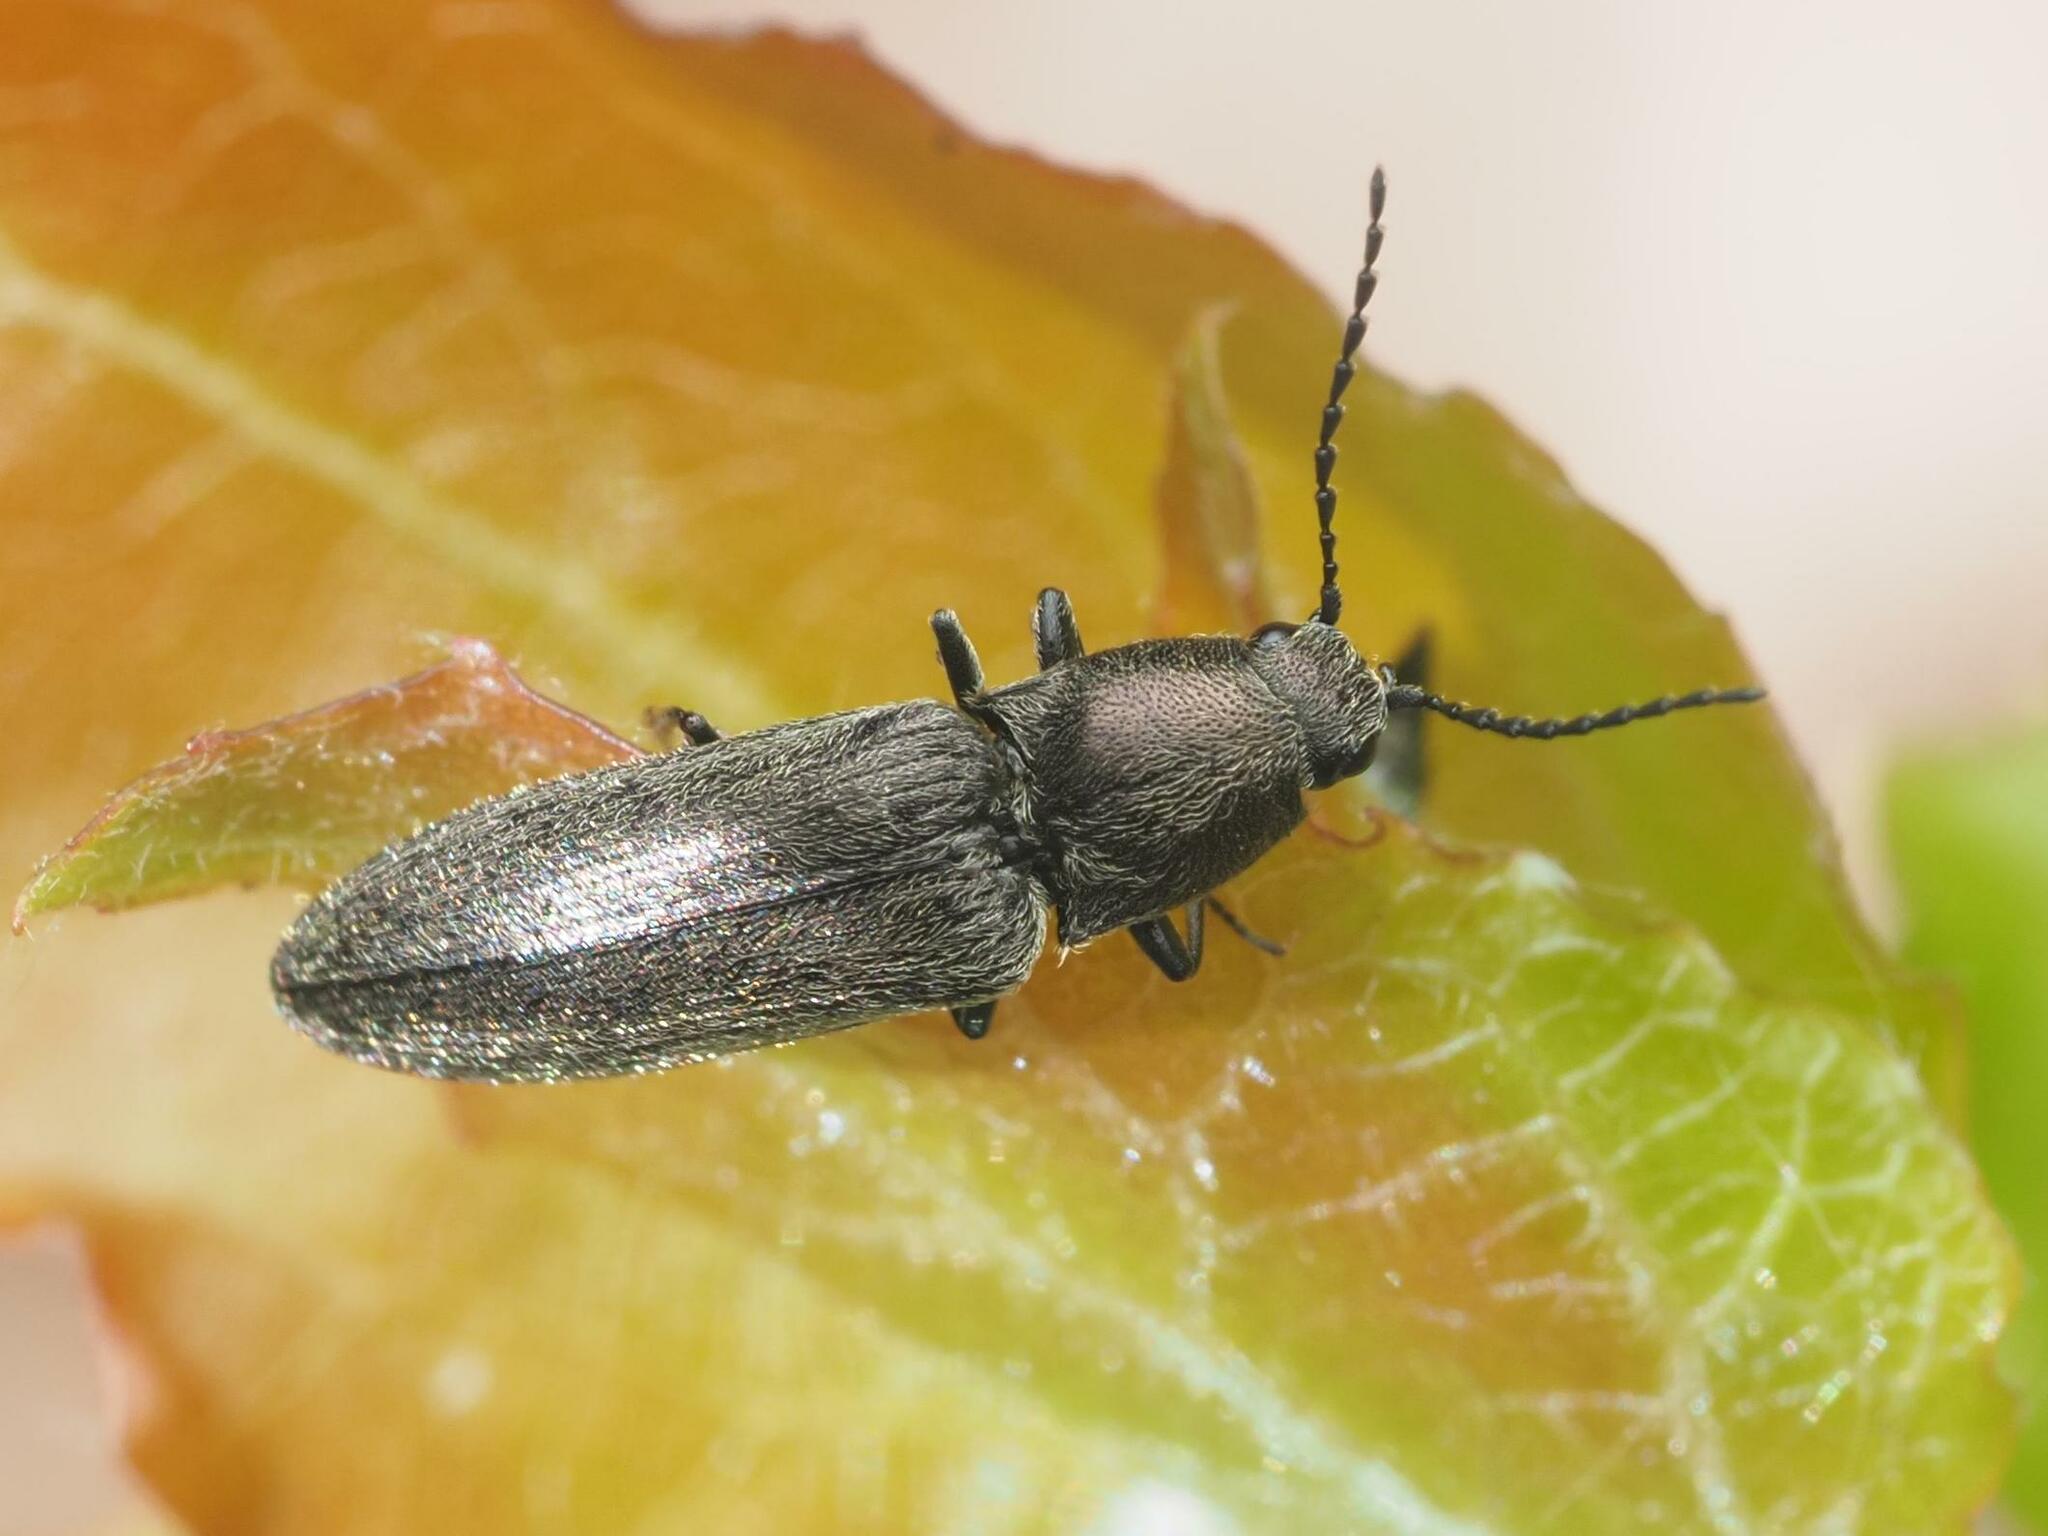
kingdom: Animalia
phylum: Arthropoda
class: Insecta
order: Coleoptera
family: Elateridae
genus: Cidnopus
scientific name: Cidnopus aeruginosus
